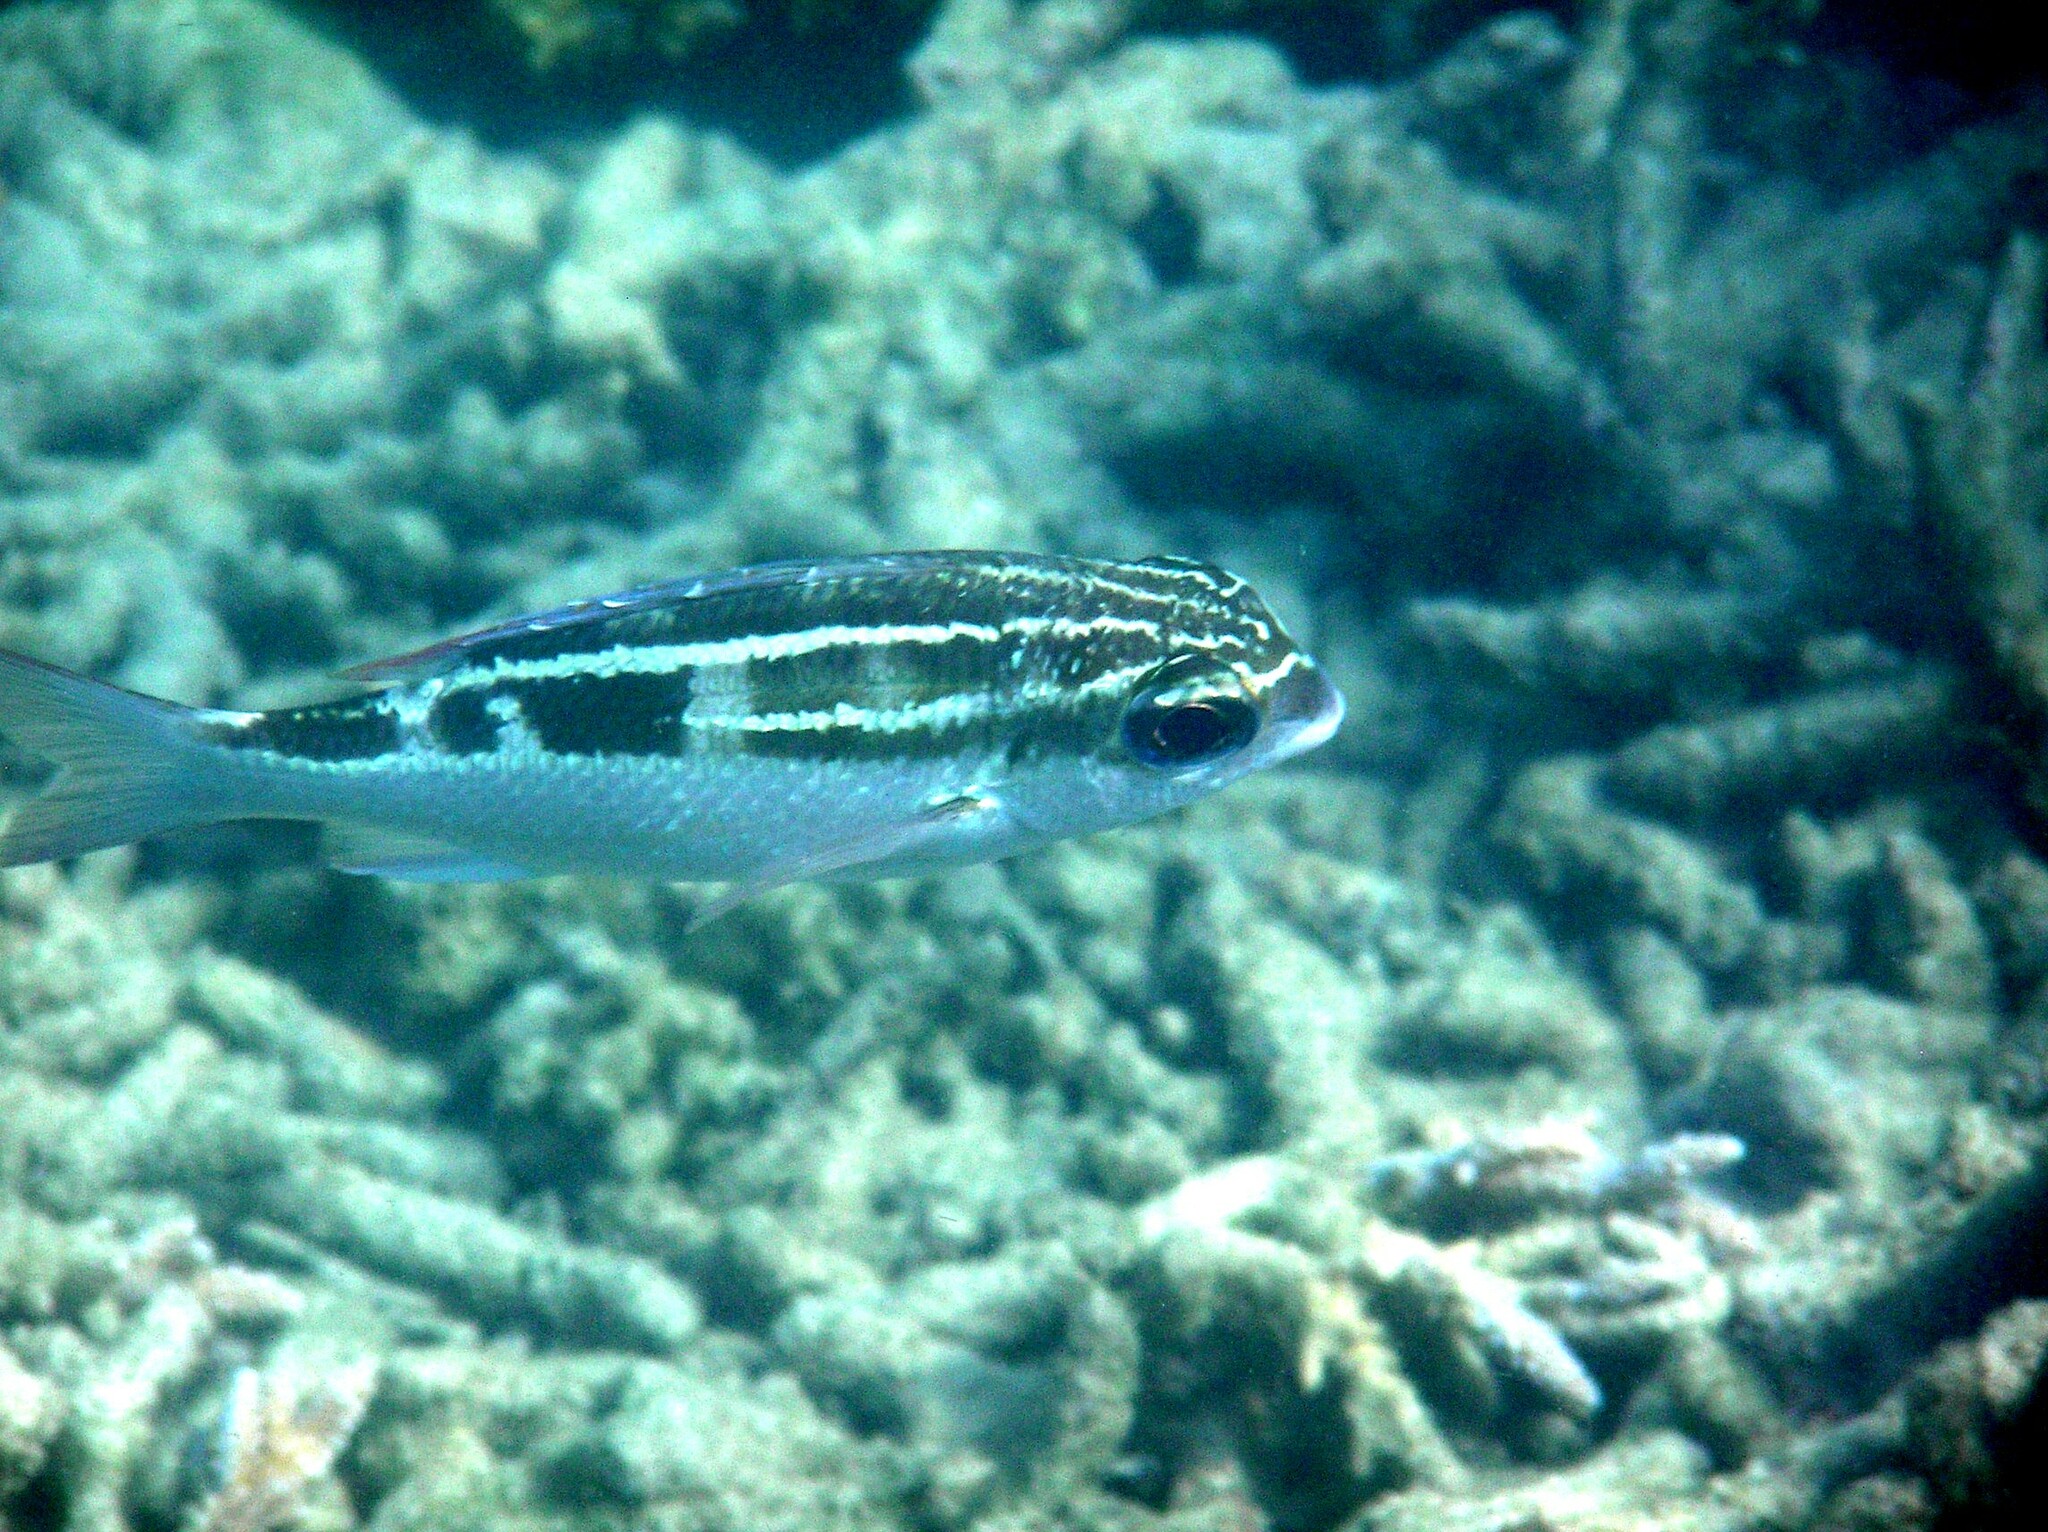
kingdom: Animalia
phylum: Chordata
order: Perciformes
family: Nemipteridae
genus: Scolopsis
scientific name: Scolopsis lineata
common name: Striped monocle bream
